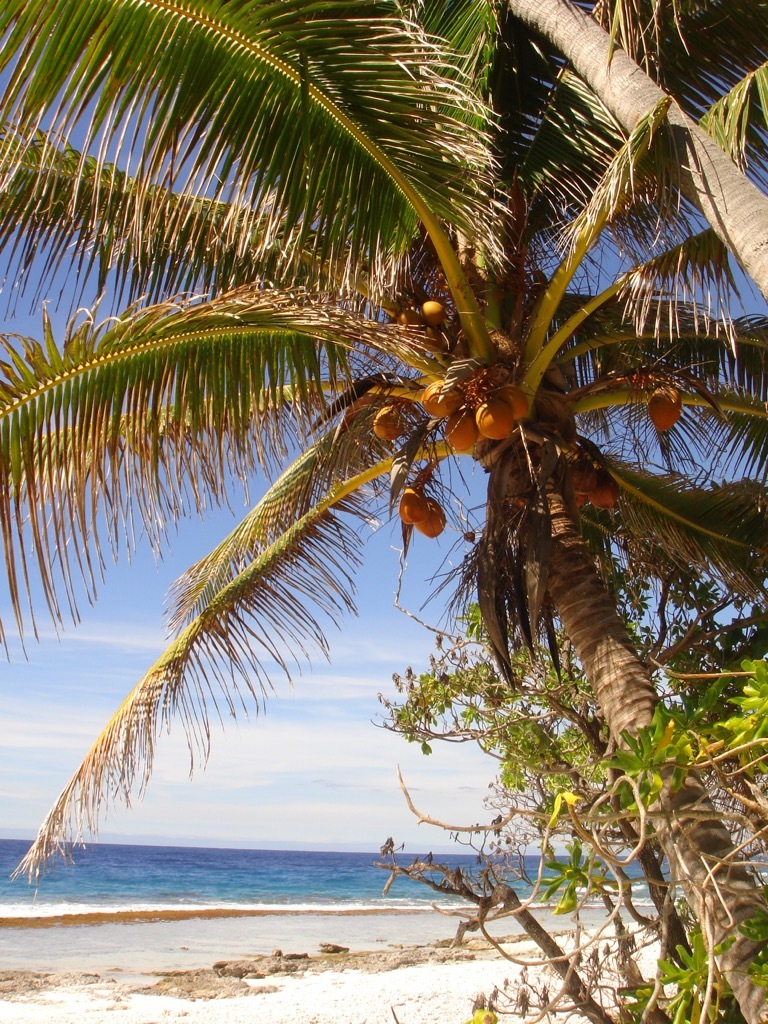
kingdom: Plantae
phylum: Tracheophyta
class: Liliopsida
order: Arecales
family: Arecaceae
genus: Cocos
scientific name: Cocos nucifera
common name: Coconut palm
